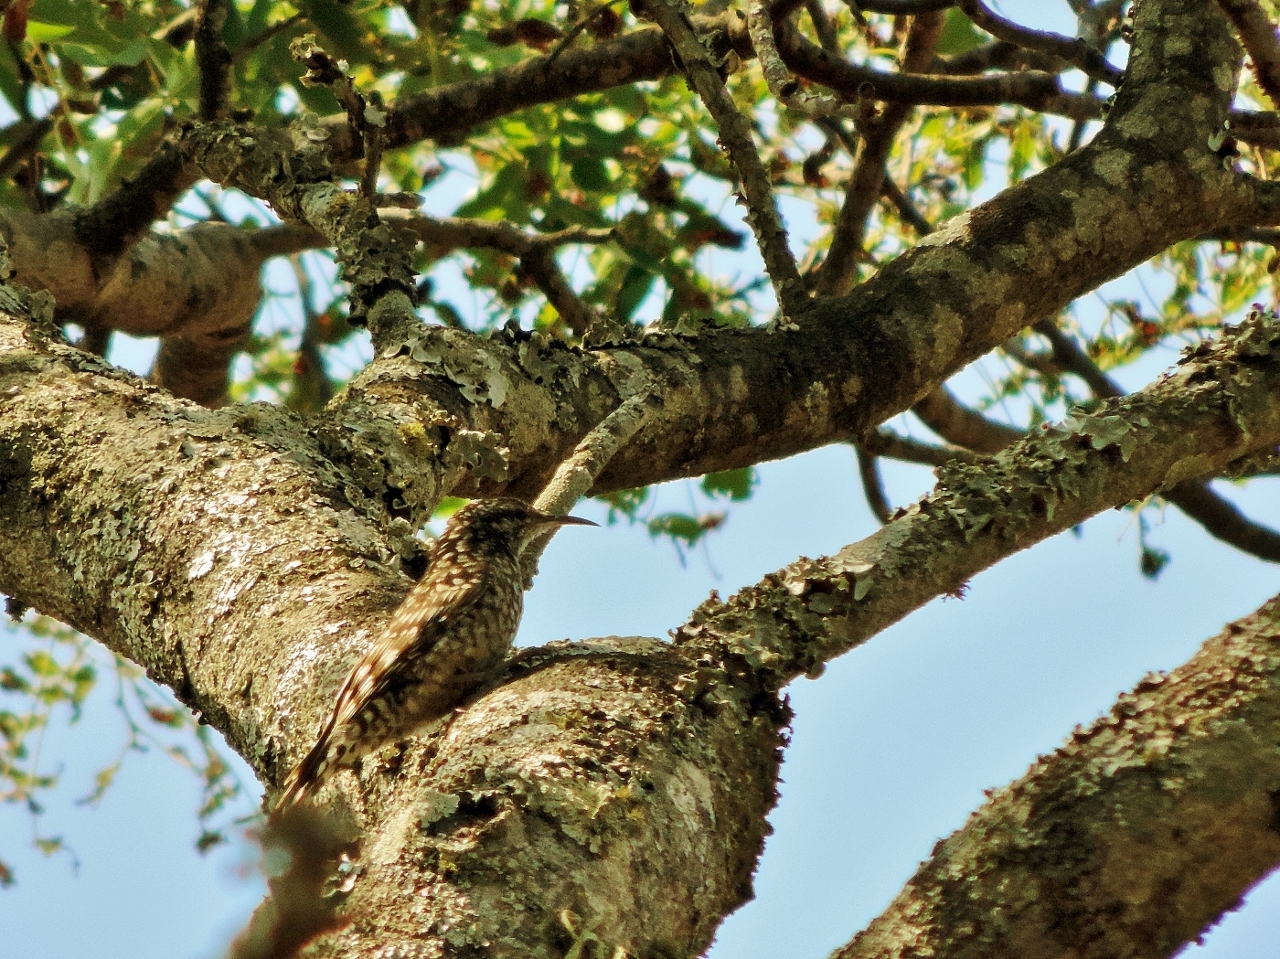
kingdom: Animalia
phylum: Chordata
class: Aves
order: Passeriformes
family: Certhiidae
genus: Salpornis
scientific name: Salpornis salvadori
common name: African spotted creeper
